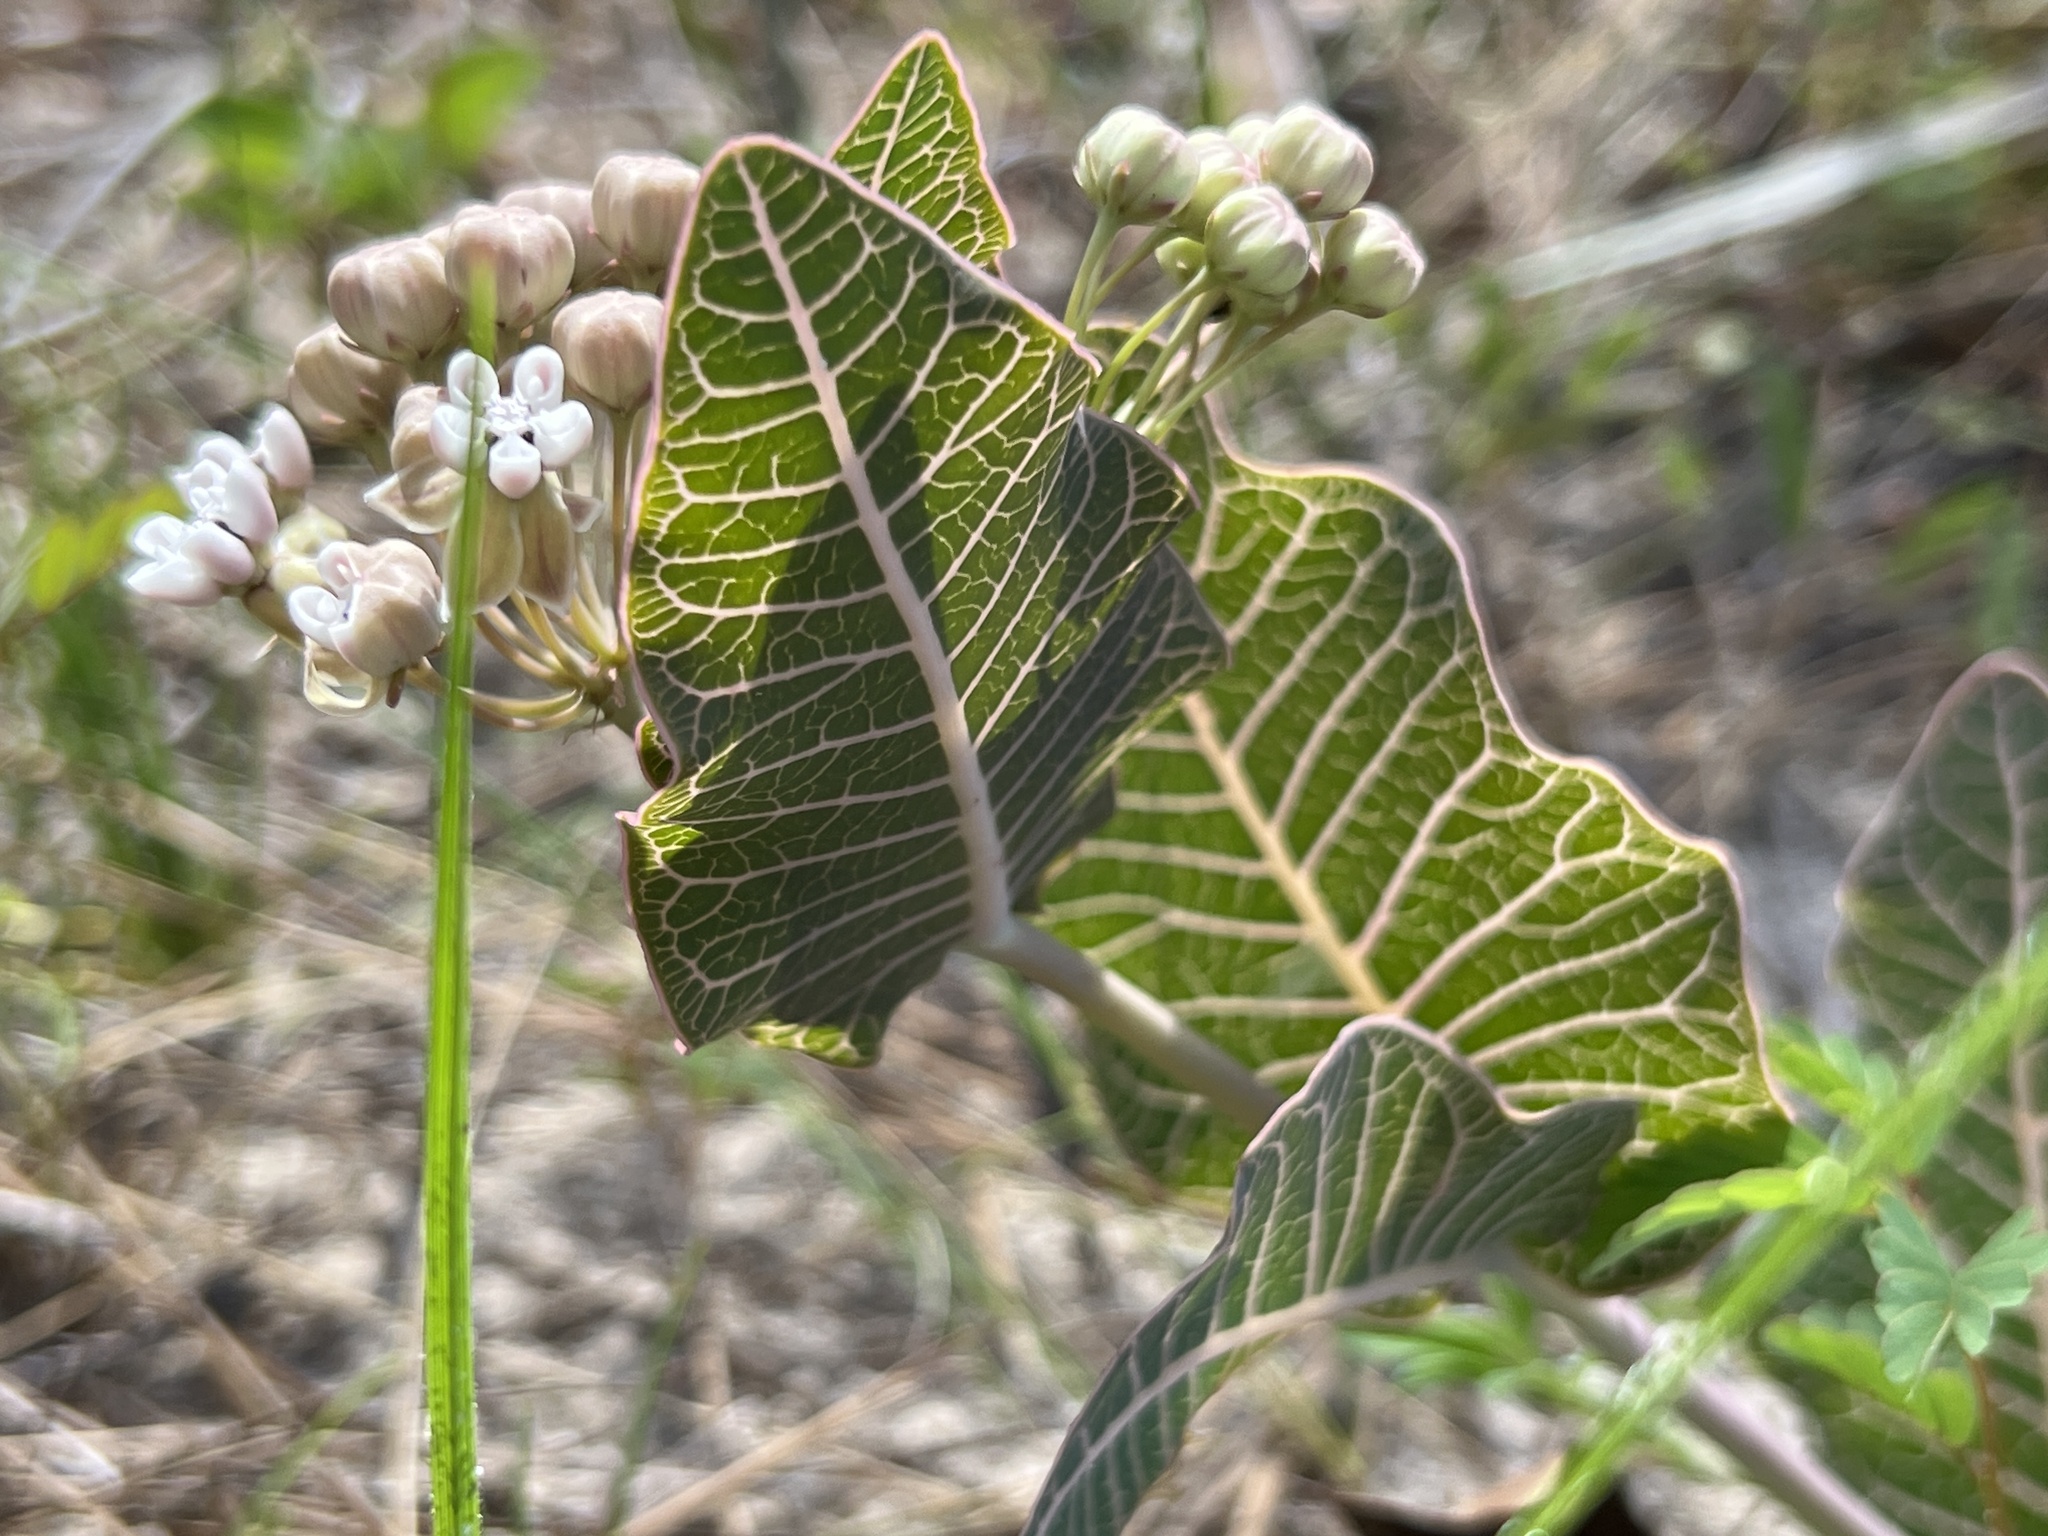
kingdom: Plantae
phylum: Tracheophyta
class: Magnoliopsida
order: Gentianales
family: Apocynaceae
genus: Asclepias
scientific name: Asclepias humistrata
